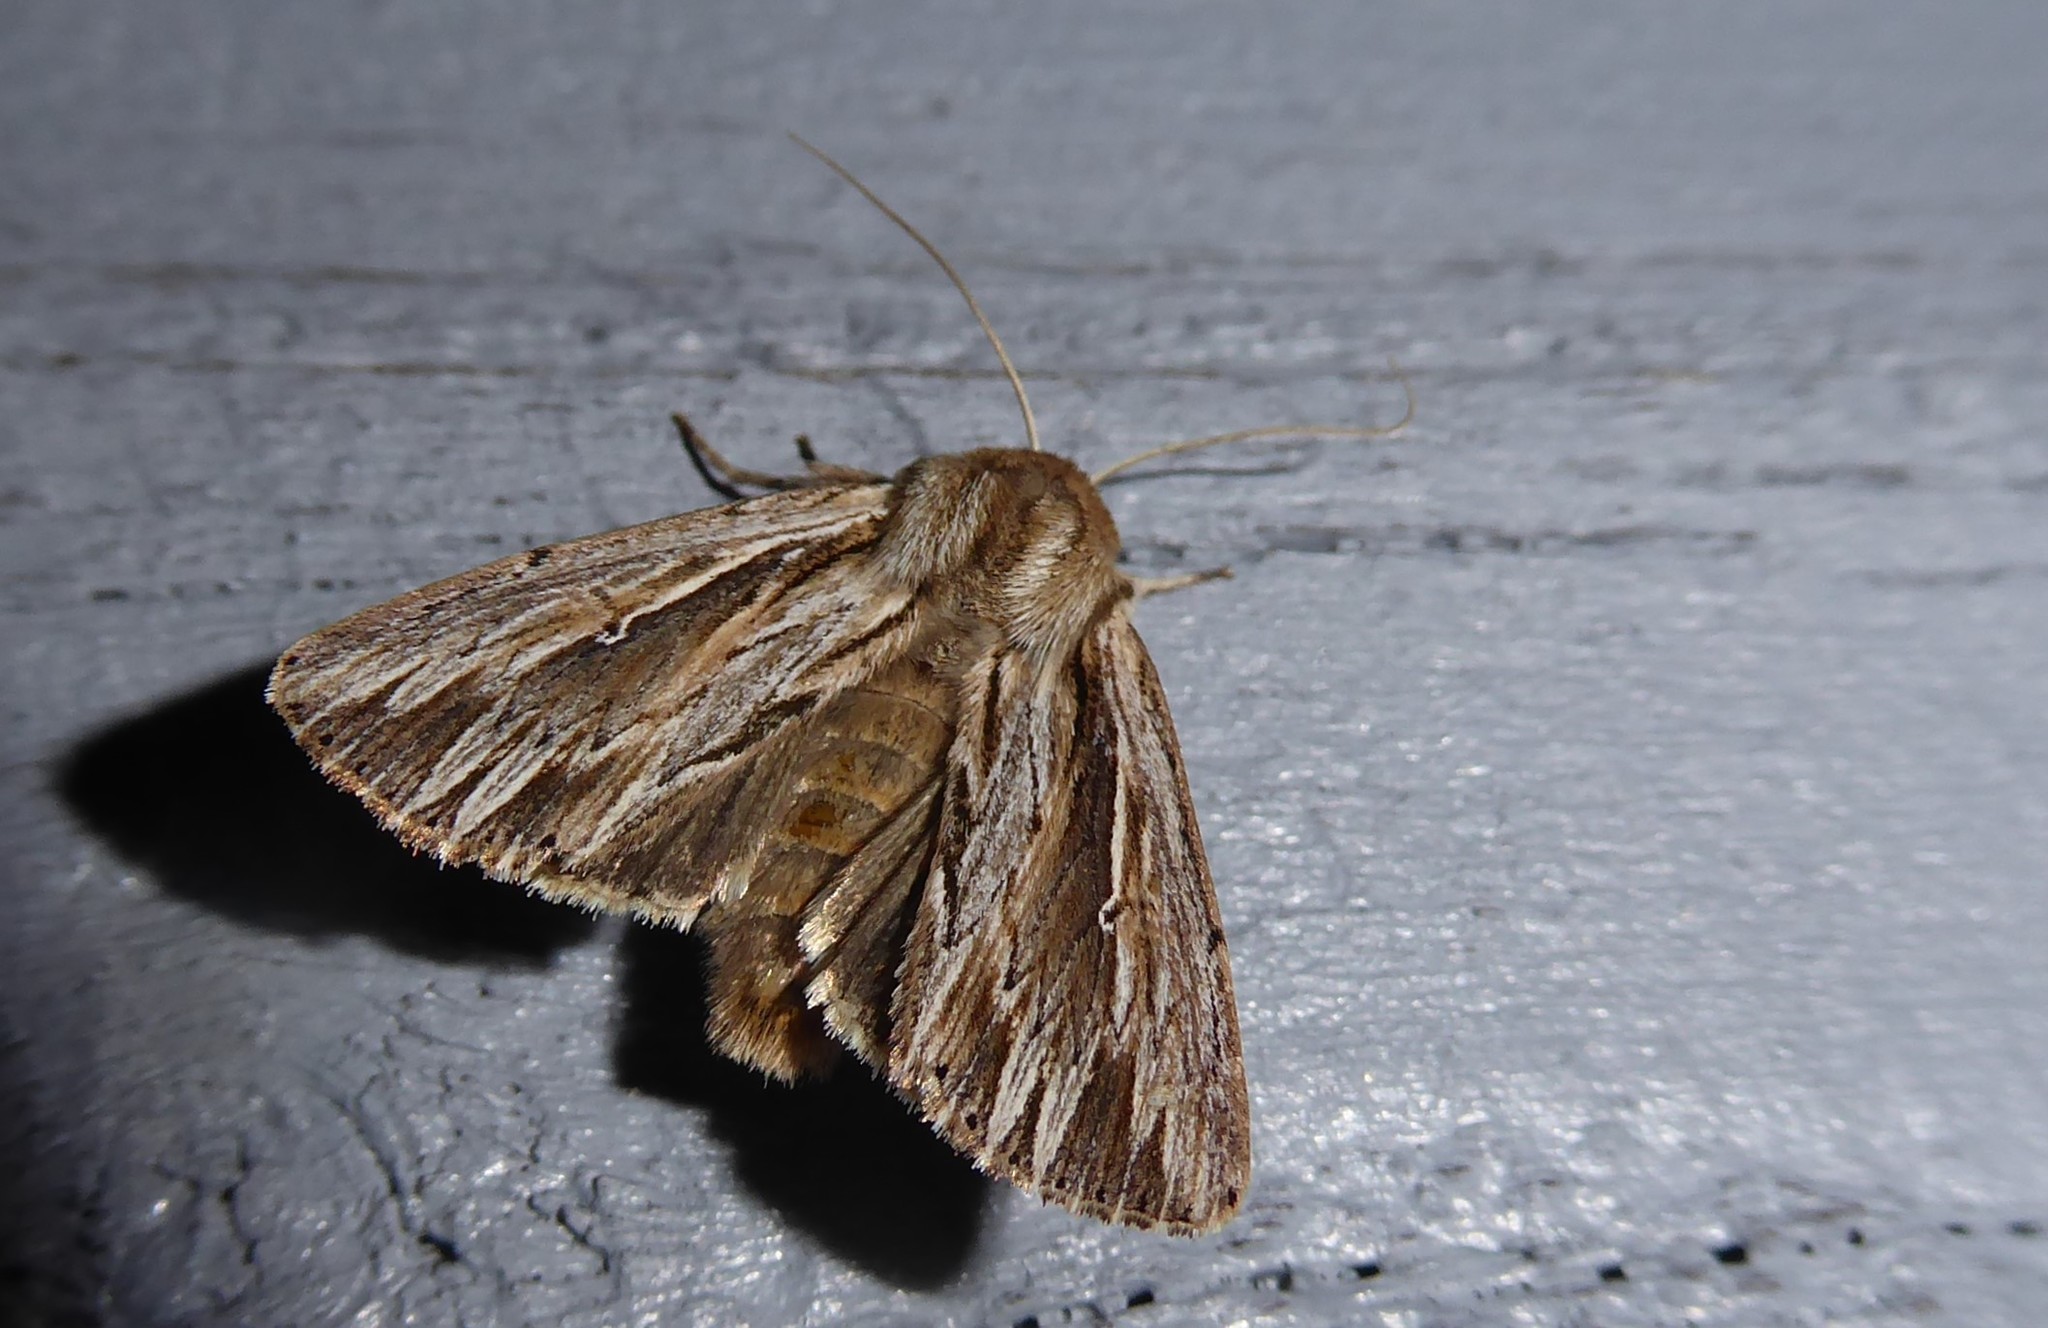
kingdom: Animalia
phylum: Arthropoda
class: Insecta
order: Lepidoptera
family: Noctuidae
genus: Persectania
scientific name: Persectania aversa
